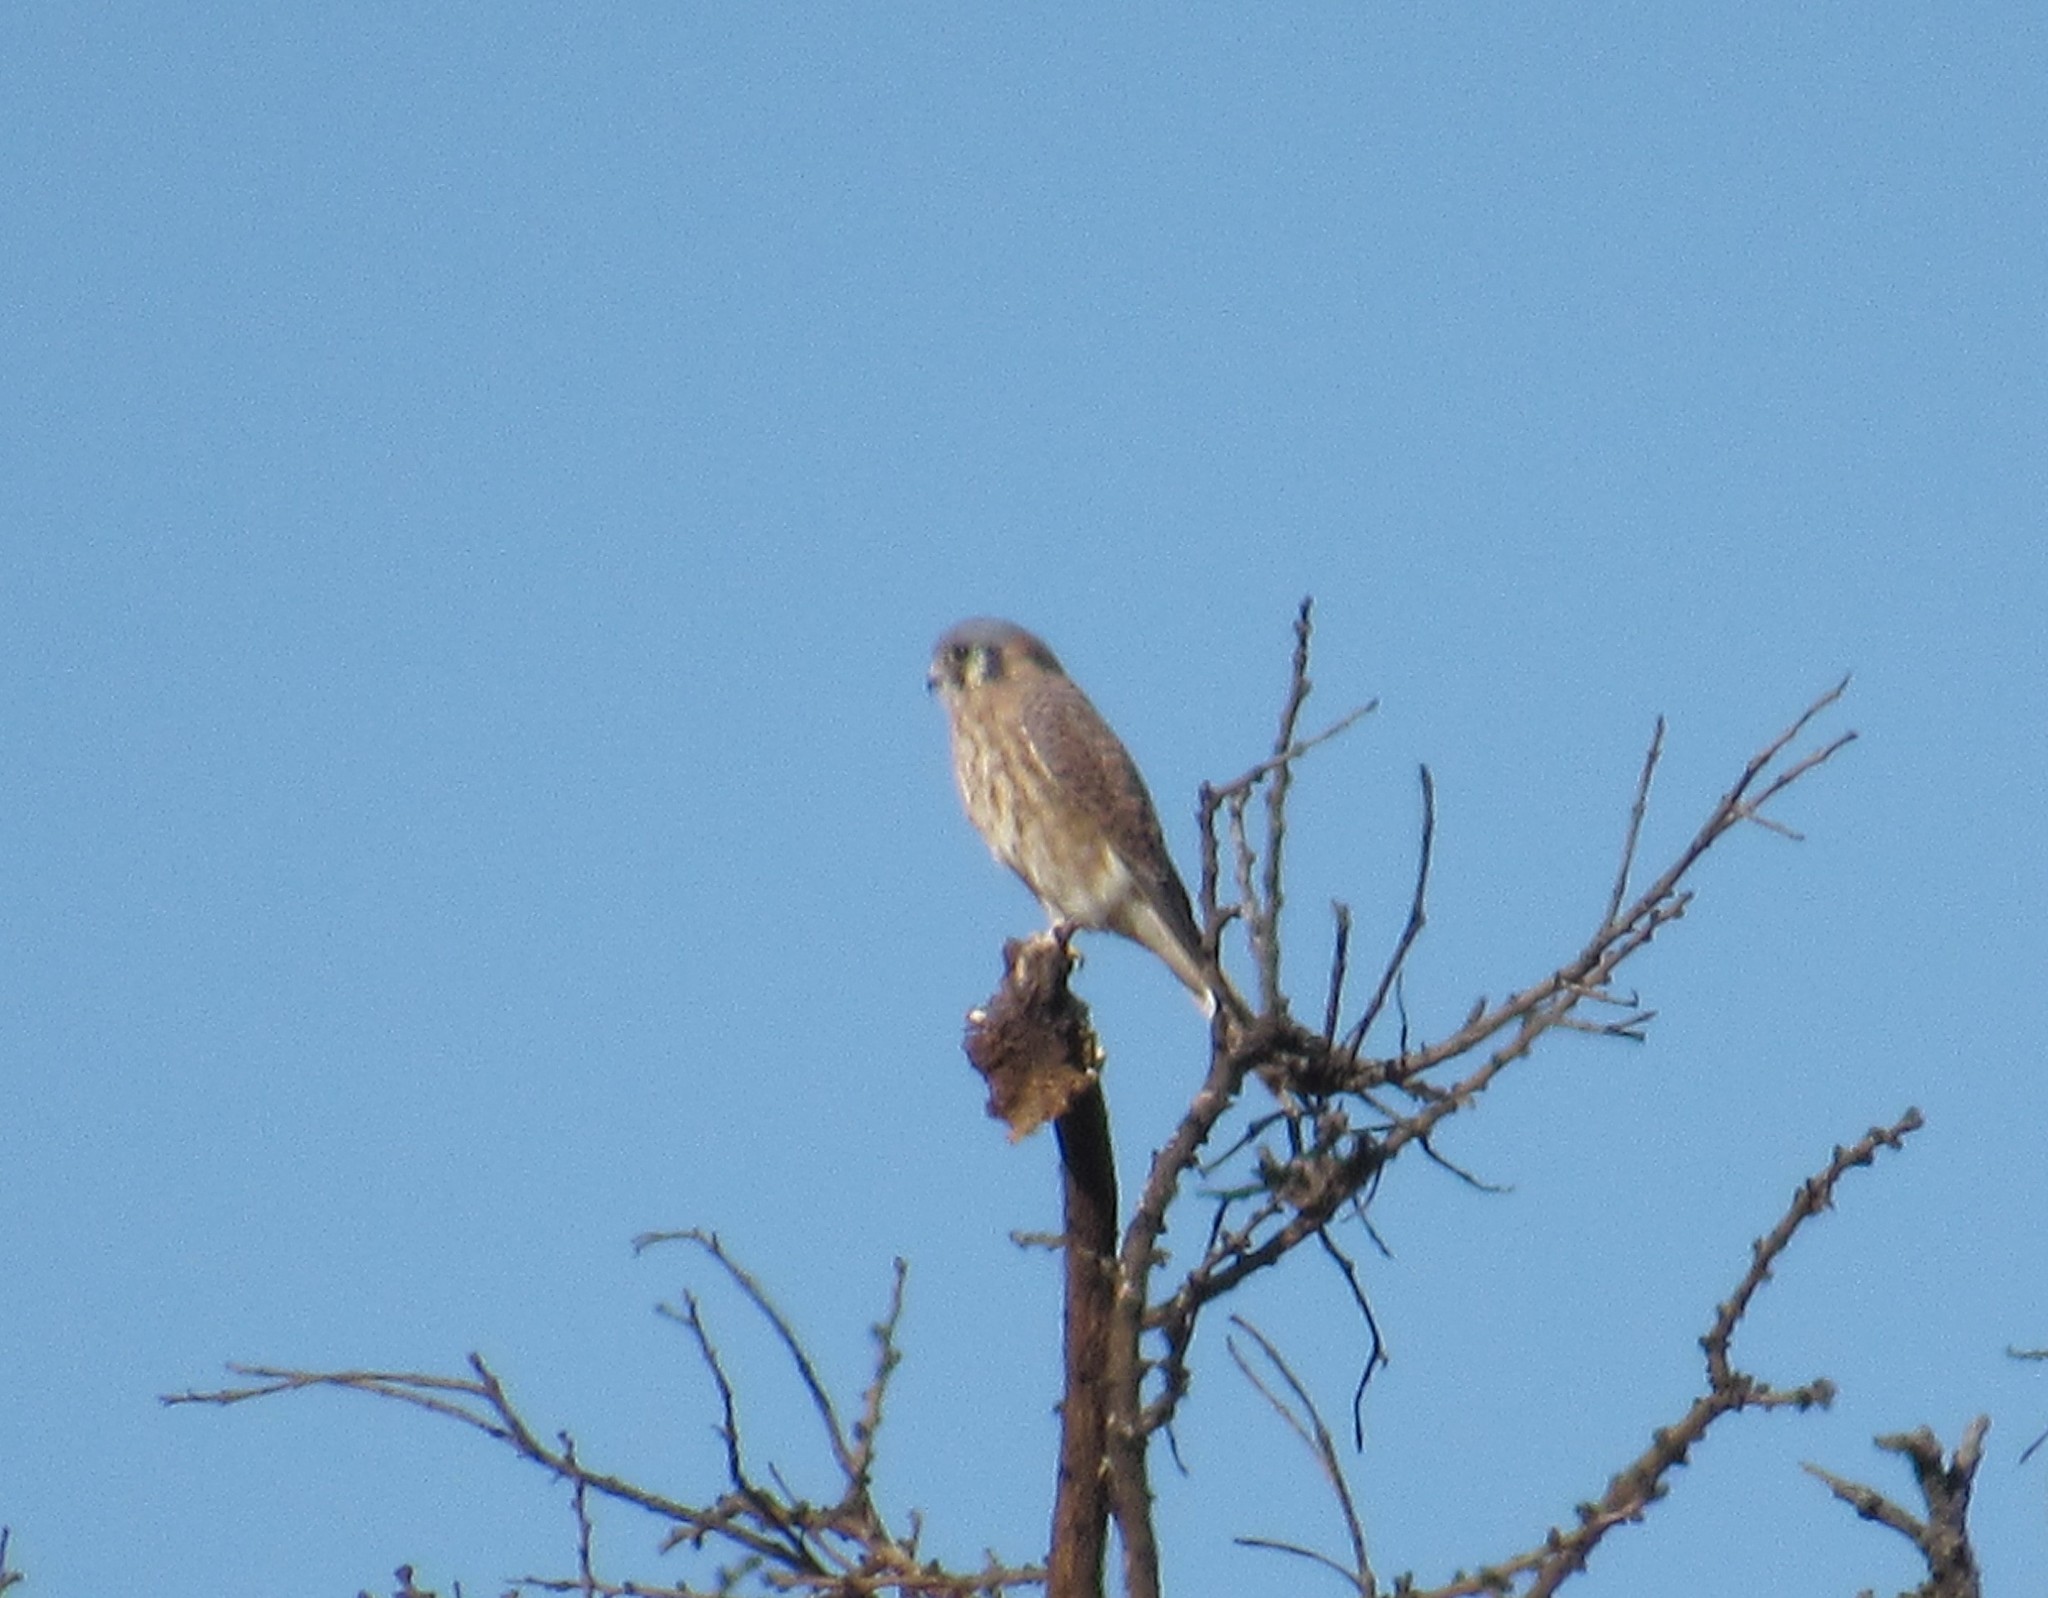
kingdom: Animalia
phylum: Chordata
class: Aves
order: Falconiformes
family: Falconidae
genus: Falco
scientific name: Falco sparverius
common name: American kestrel
